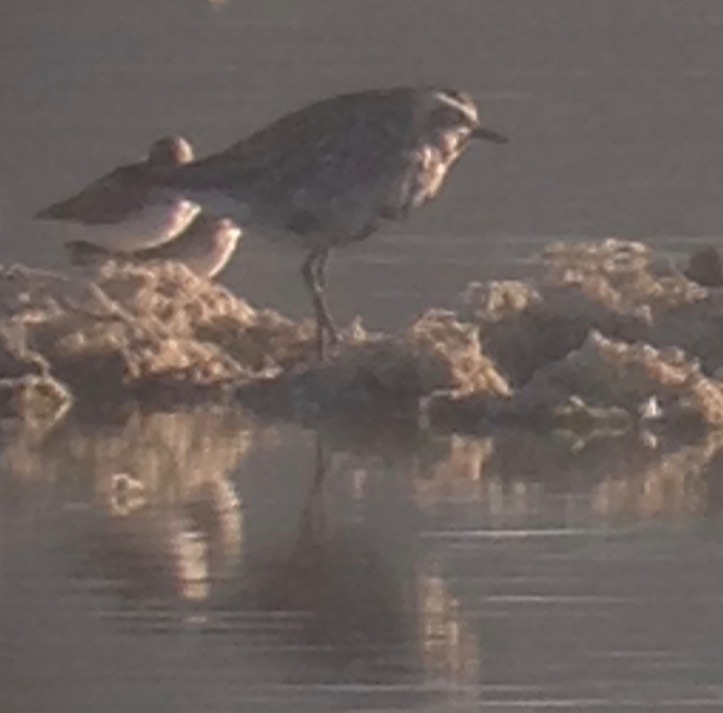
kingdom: Animalia
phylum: Chordata
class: Aves
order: Charadriiformes
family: Charadriidae
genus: Pluvialis
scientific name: Pluvialis fulva
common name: Pacific golden plover
